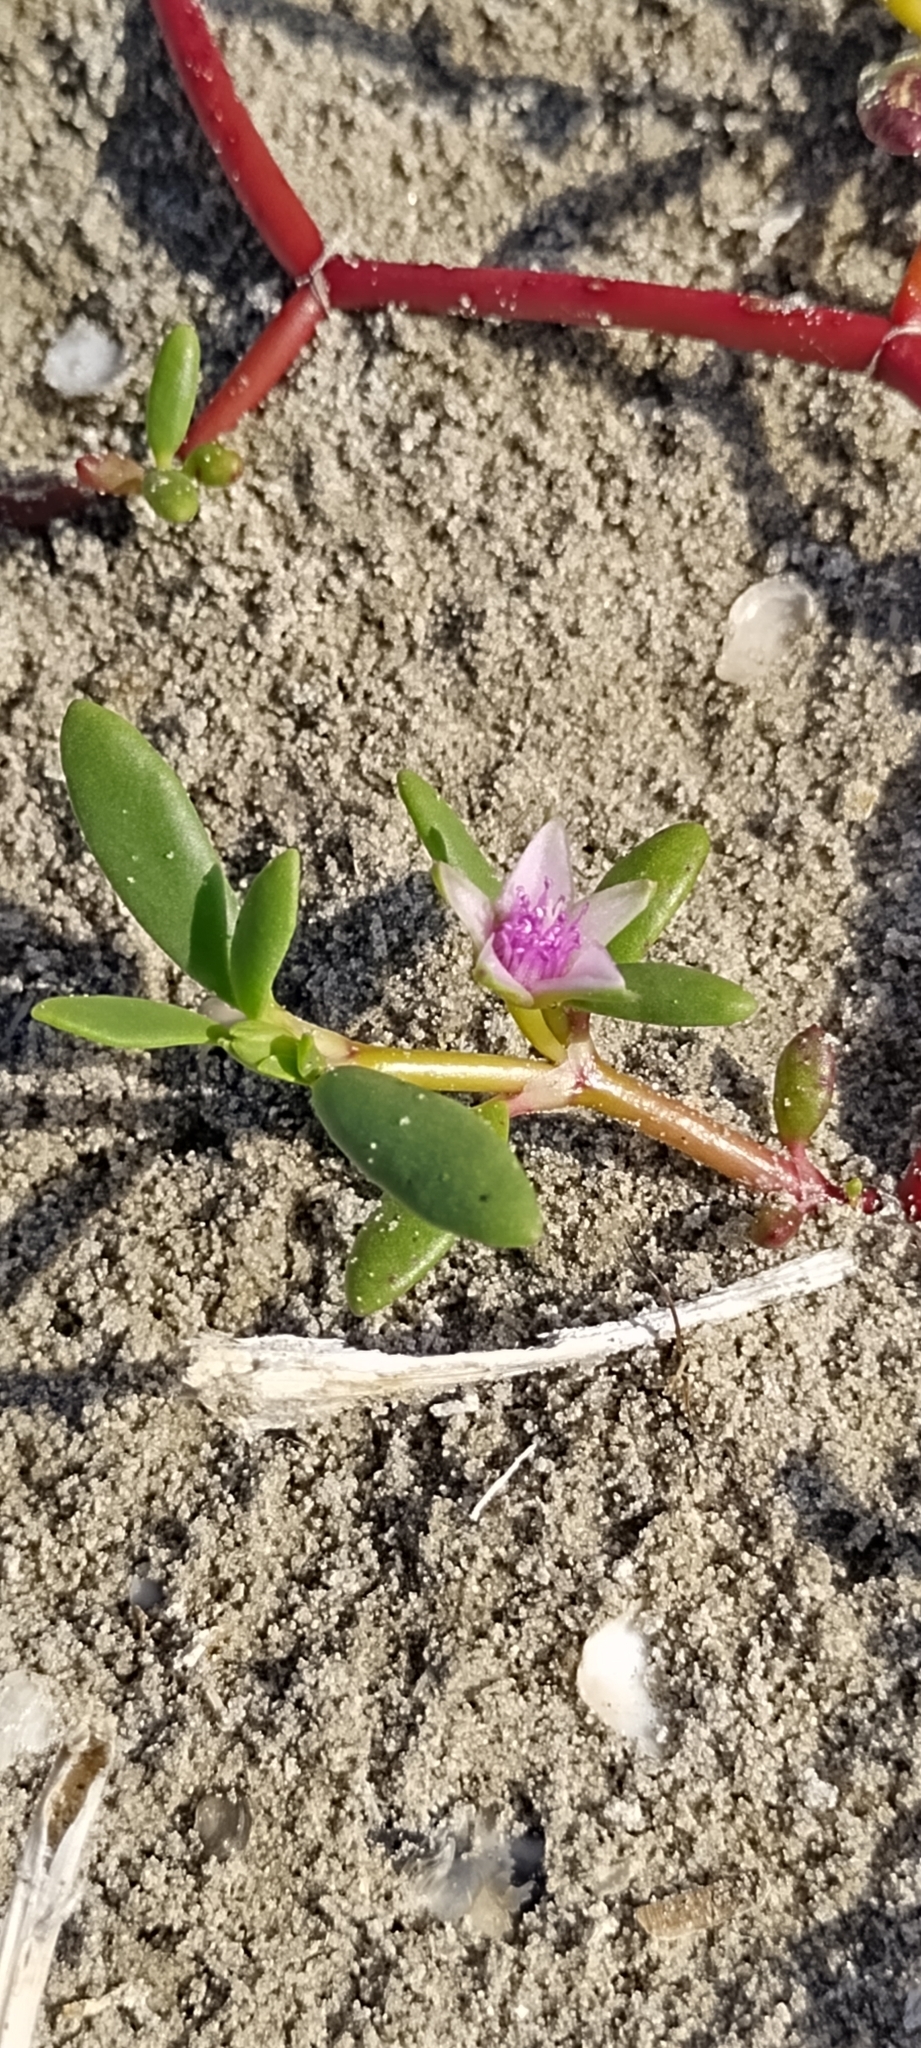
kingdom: Plantae
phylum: Tracheophyta
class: Magnoliopsida
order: Caryophyllales
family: Aizoaceae
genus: Sesuvium
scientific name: Sesuvium portulacastrum
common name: Sea-purslane
